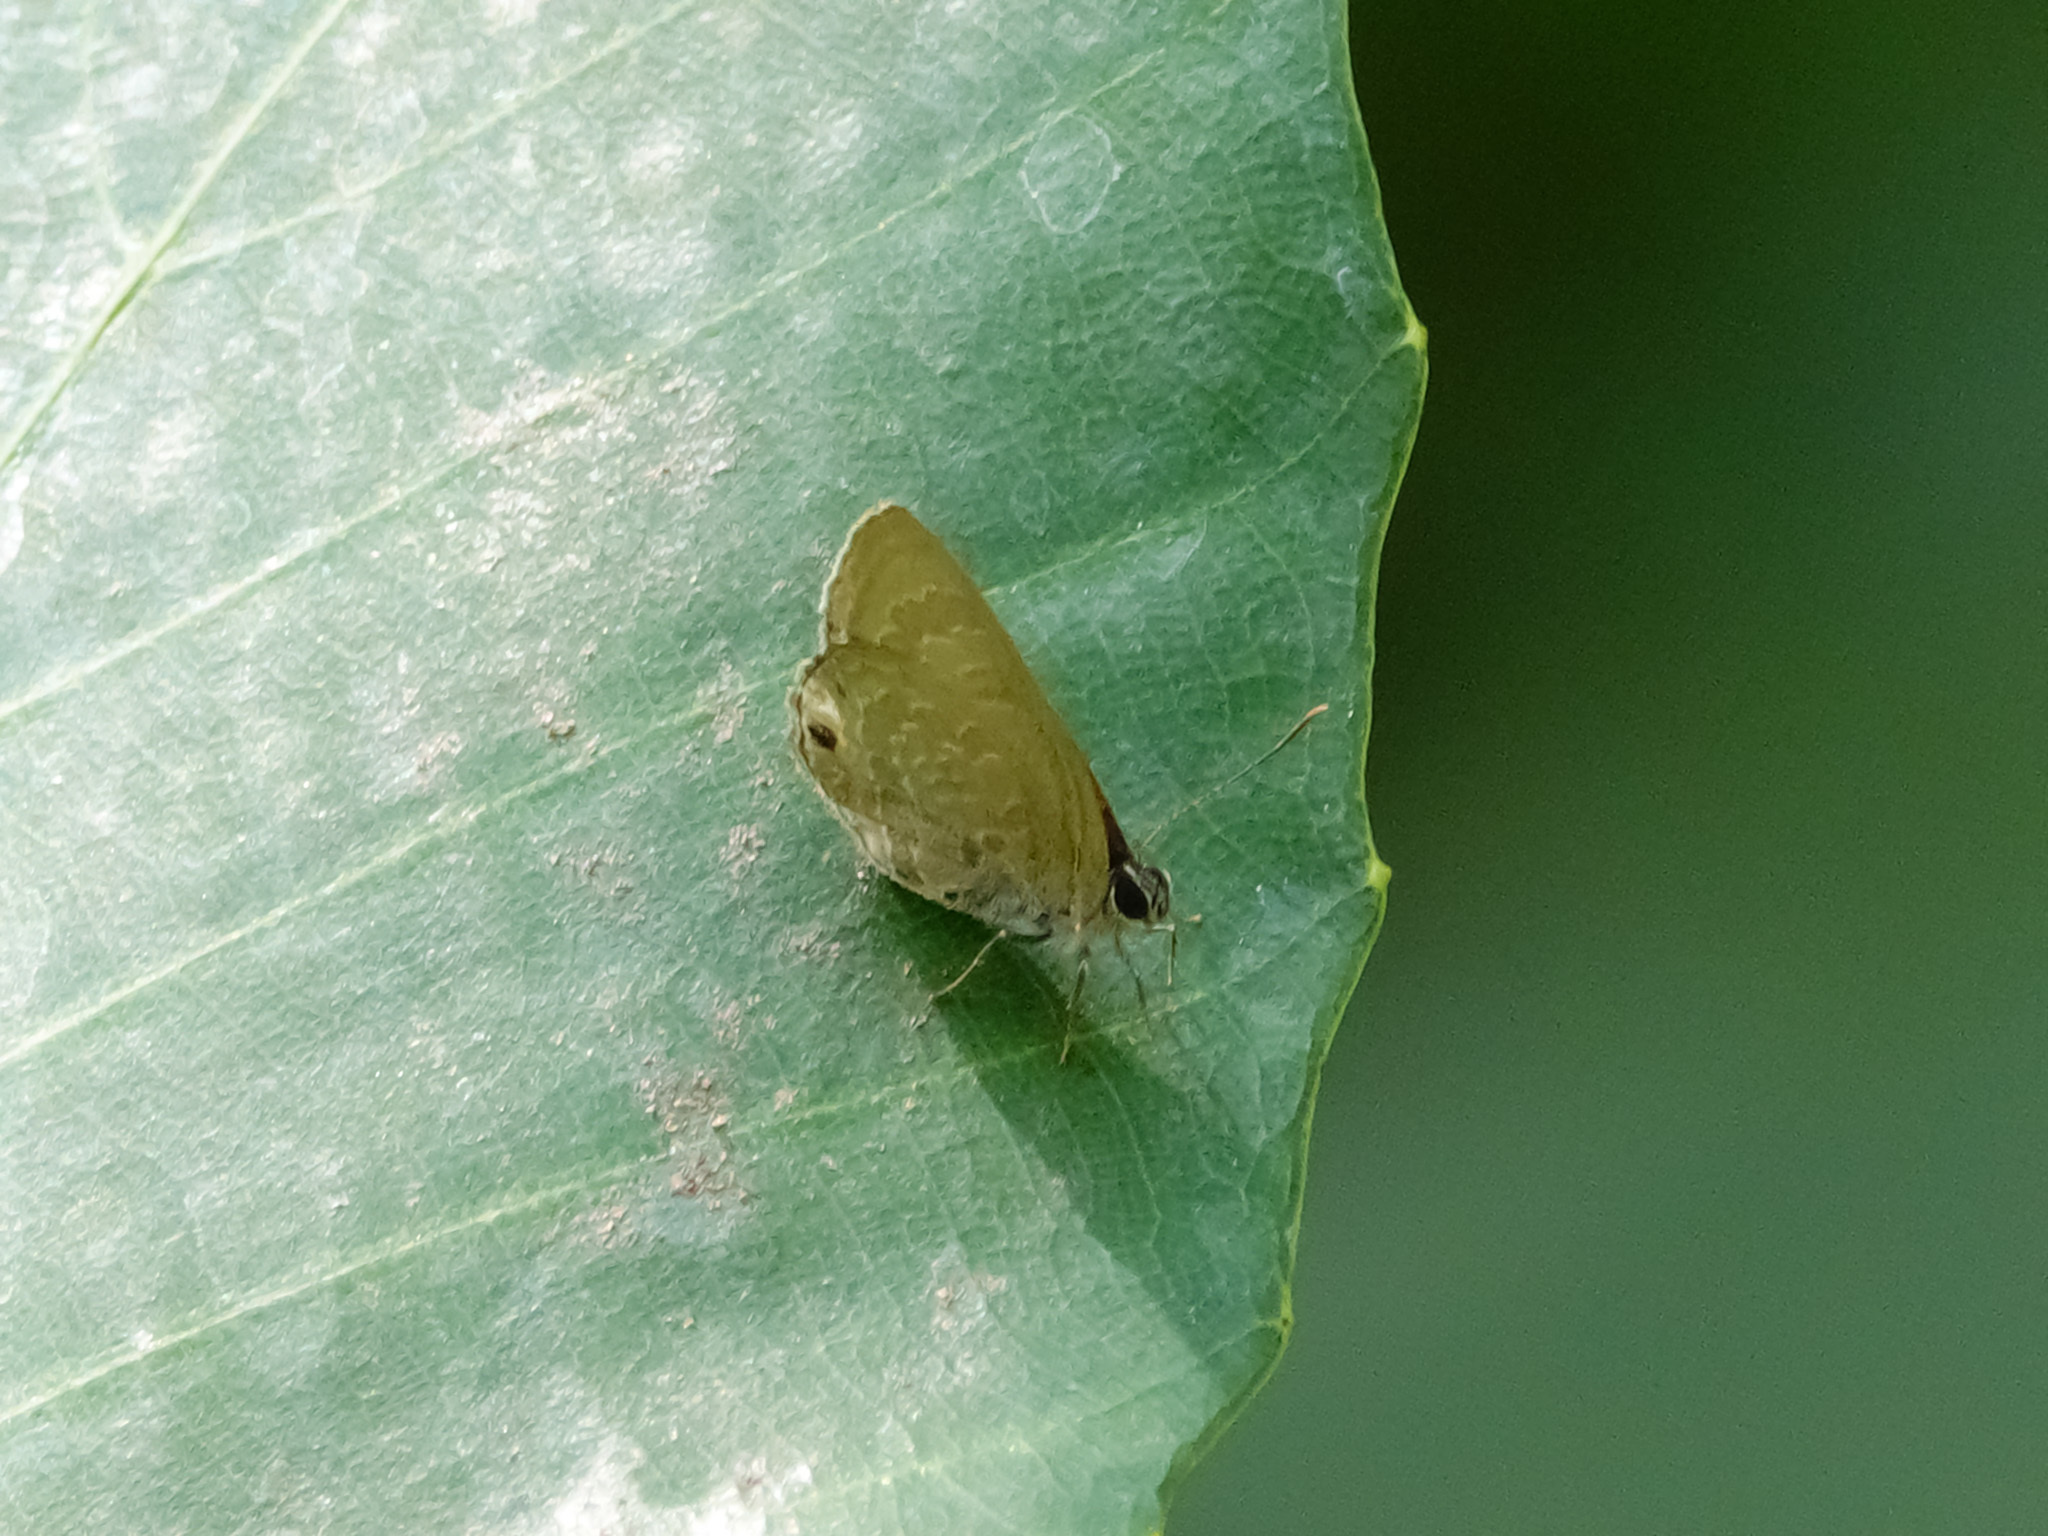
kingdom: Animalia
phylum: Arthropoda
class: Insecta
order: Lepidoptera
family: Lycaenidae
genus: Anthene
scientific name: Anthene emolus
